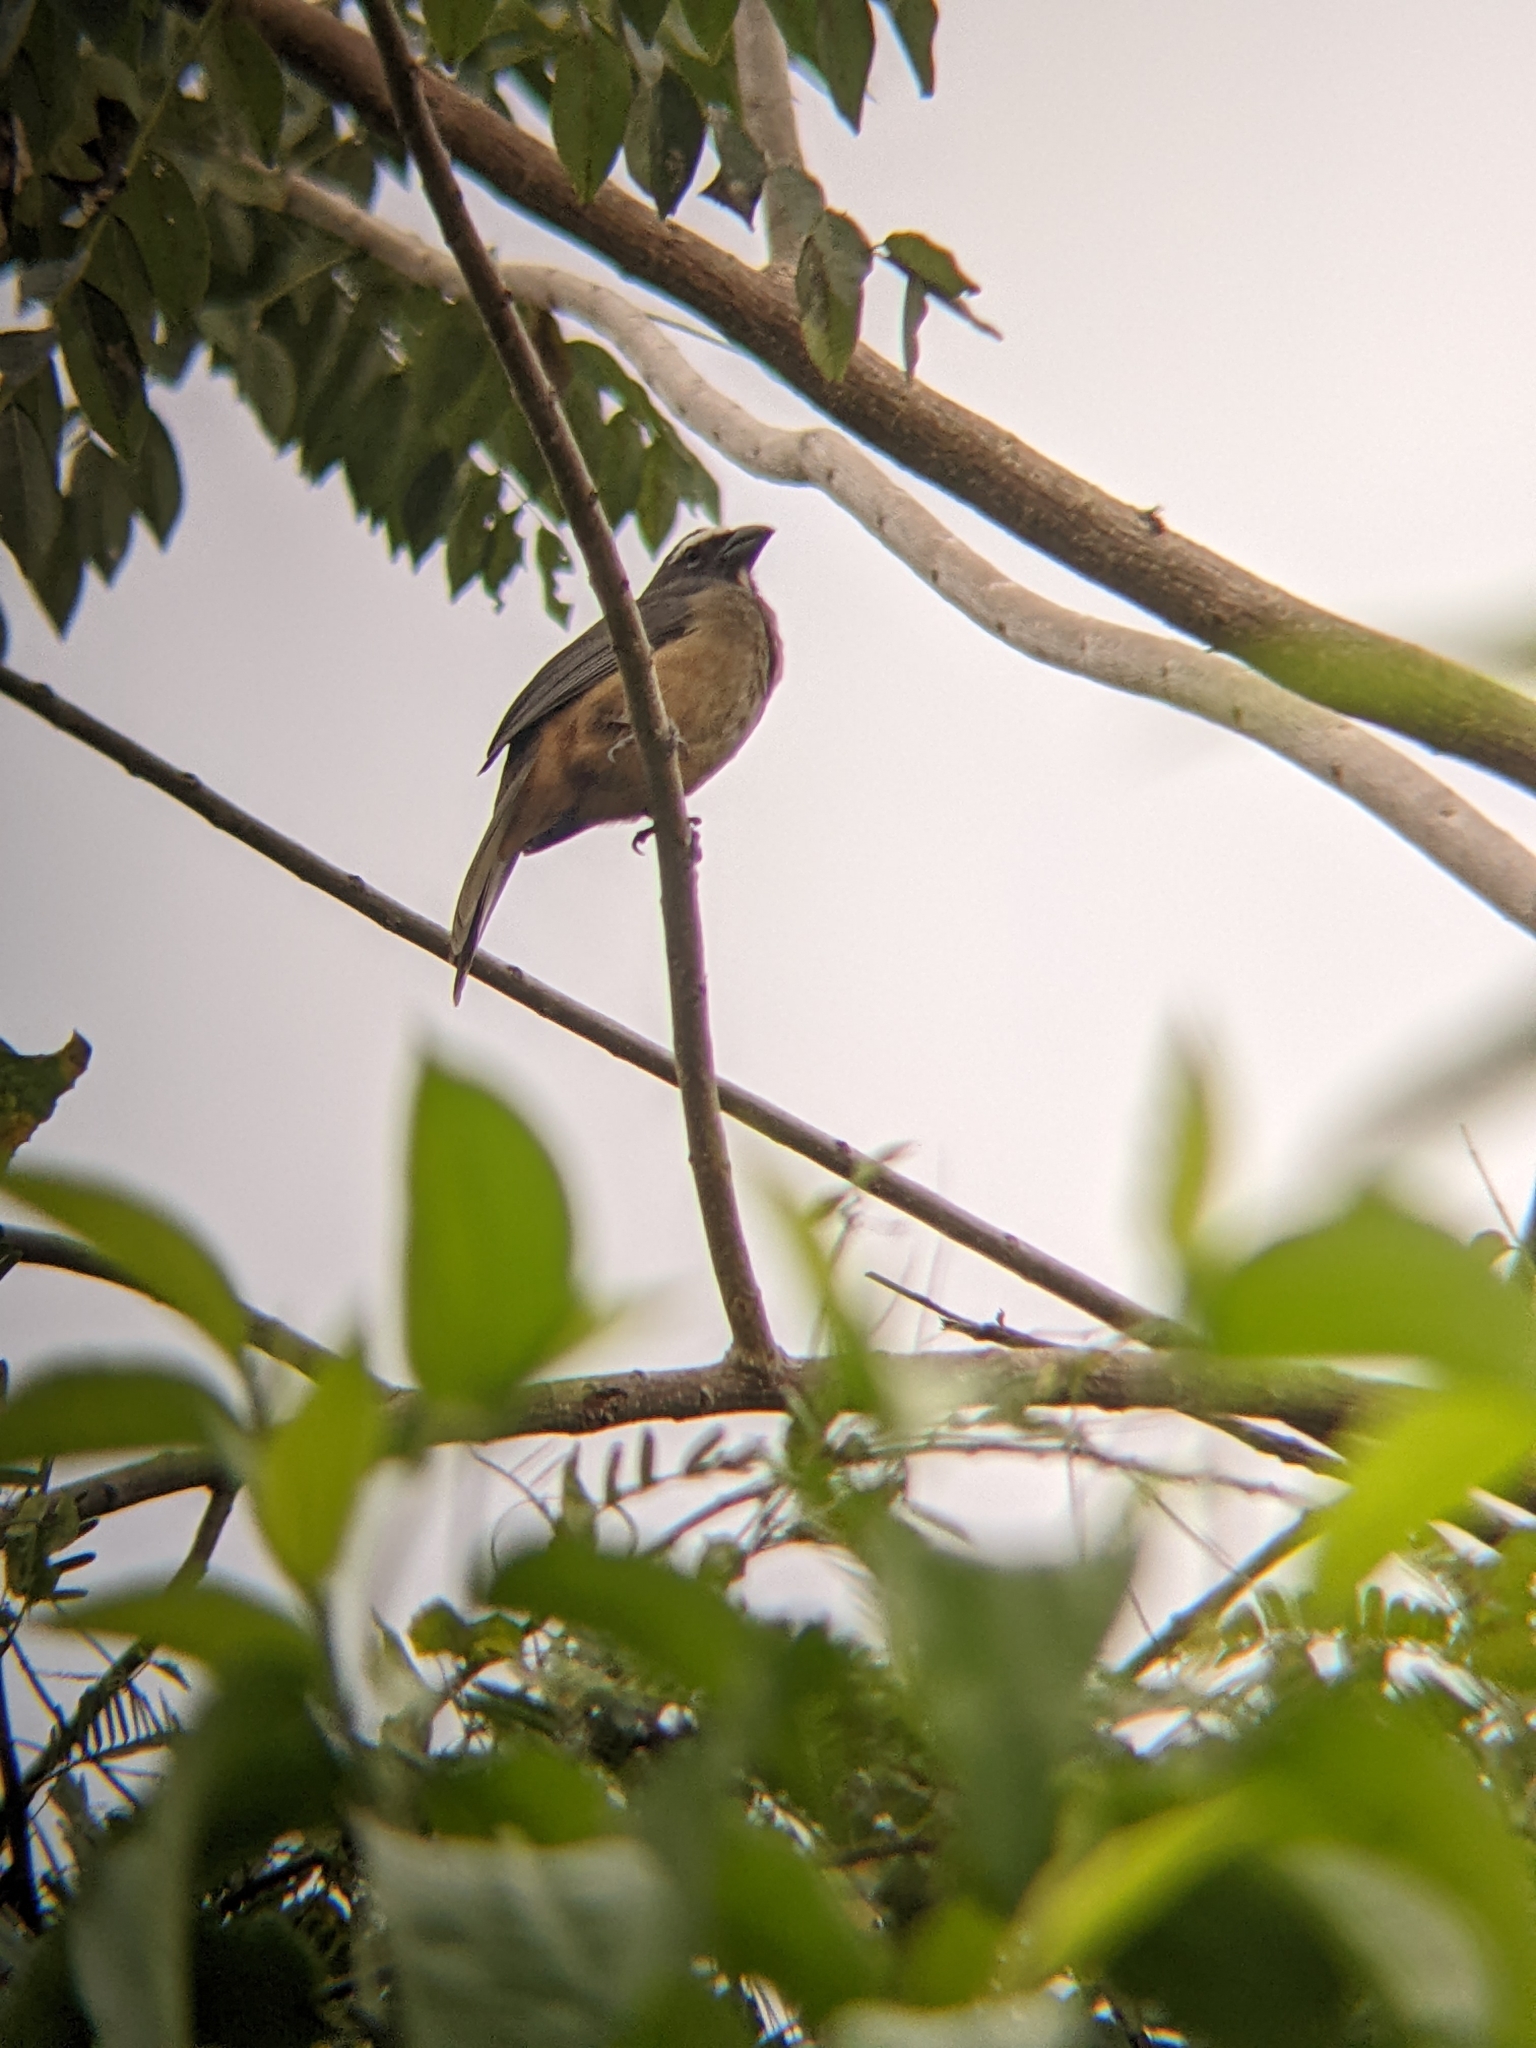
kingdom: Animalia
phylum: Chordata
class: Aves
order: Passeriformes
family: Thraupidae
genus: Saltator
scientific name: Saltator grandis
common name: Cinnamon-bellied saltator
